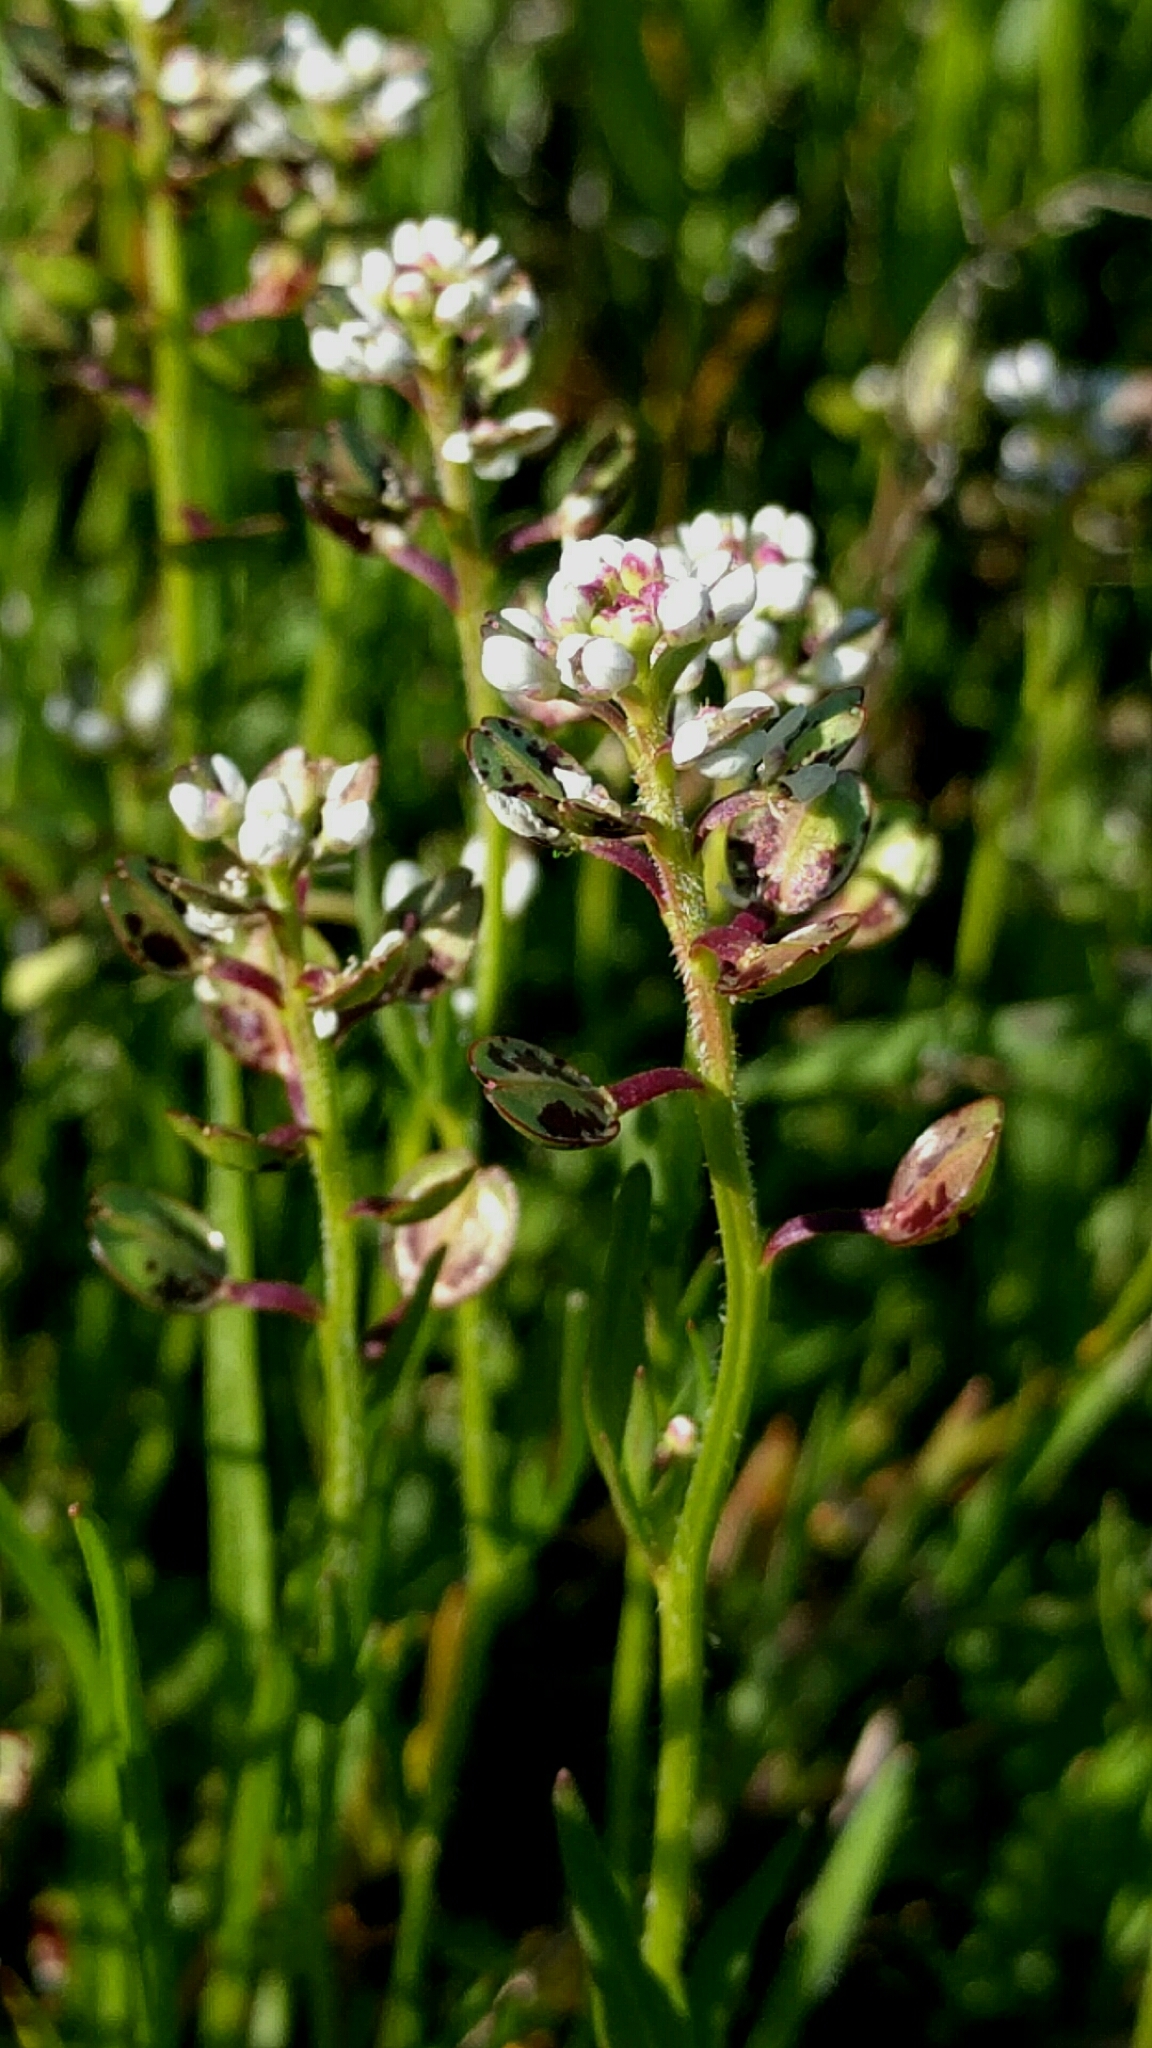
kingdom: Plantae
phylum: Tracheophyta
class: Magnoliopsida
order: Brassicales
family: Brassicaceae
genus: Lepidium
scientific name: Lepidium nitidum
